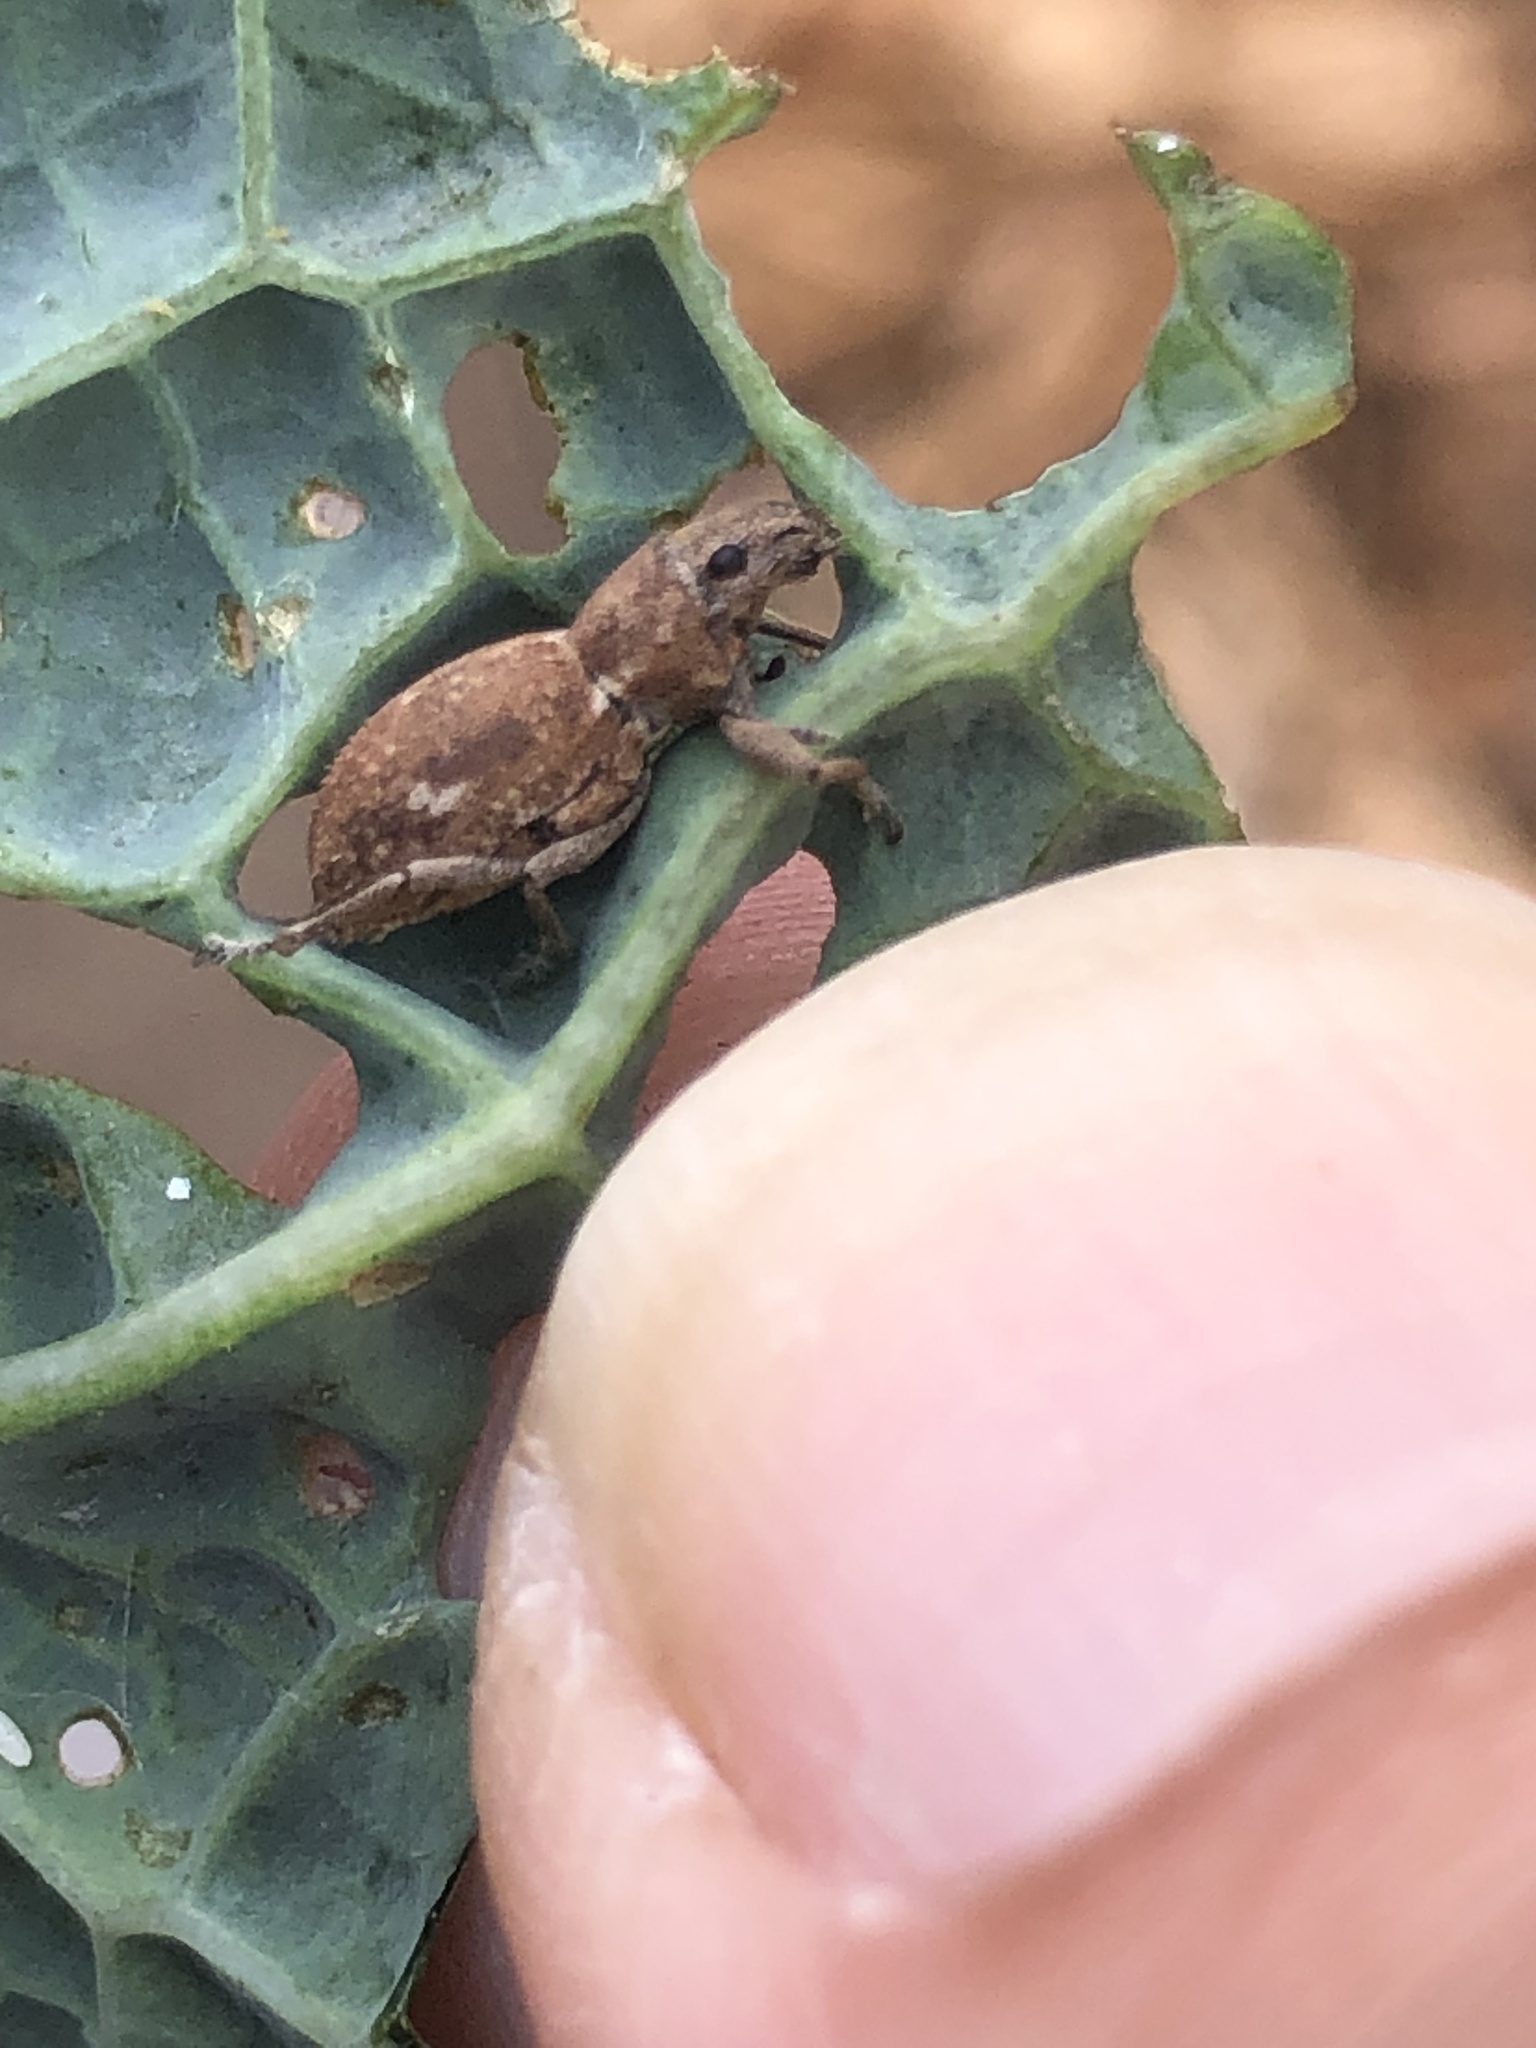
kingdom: Animalia
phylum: Arthropoda
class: Insecta
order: Coleoptera
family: Curculionidae
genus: Naupactus
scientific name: Naupactus cervinus
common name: Fuller rose beetle
